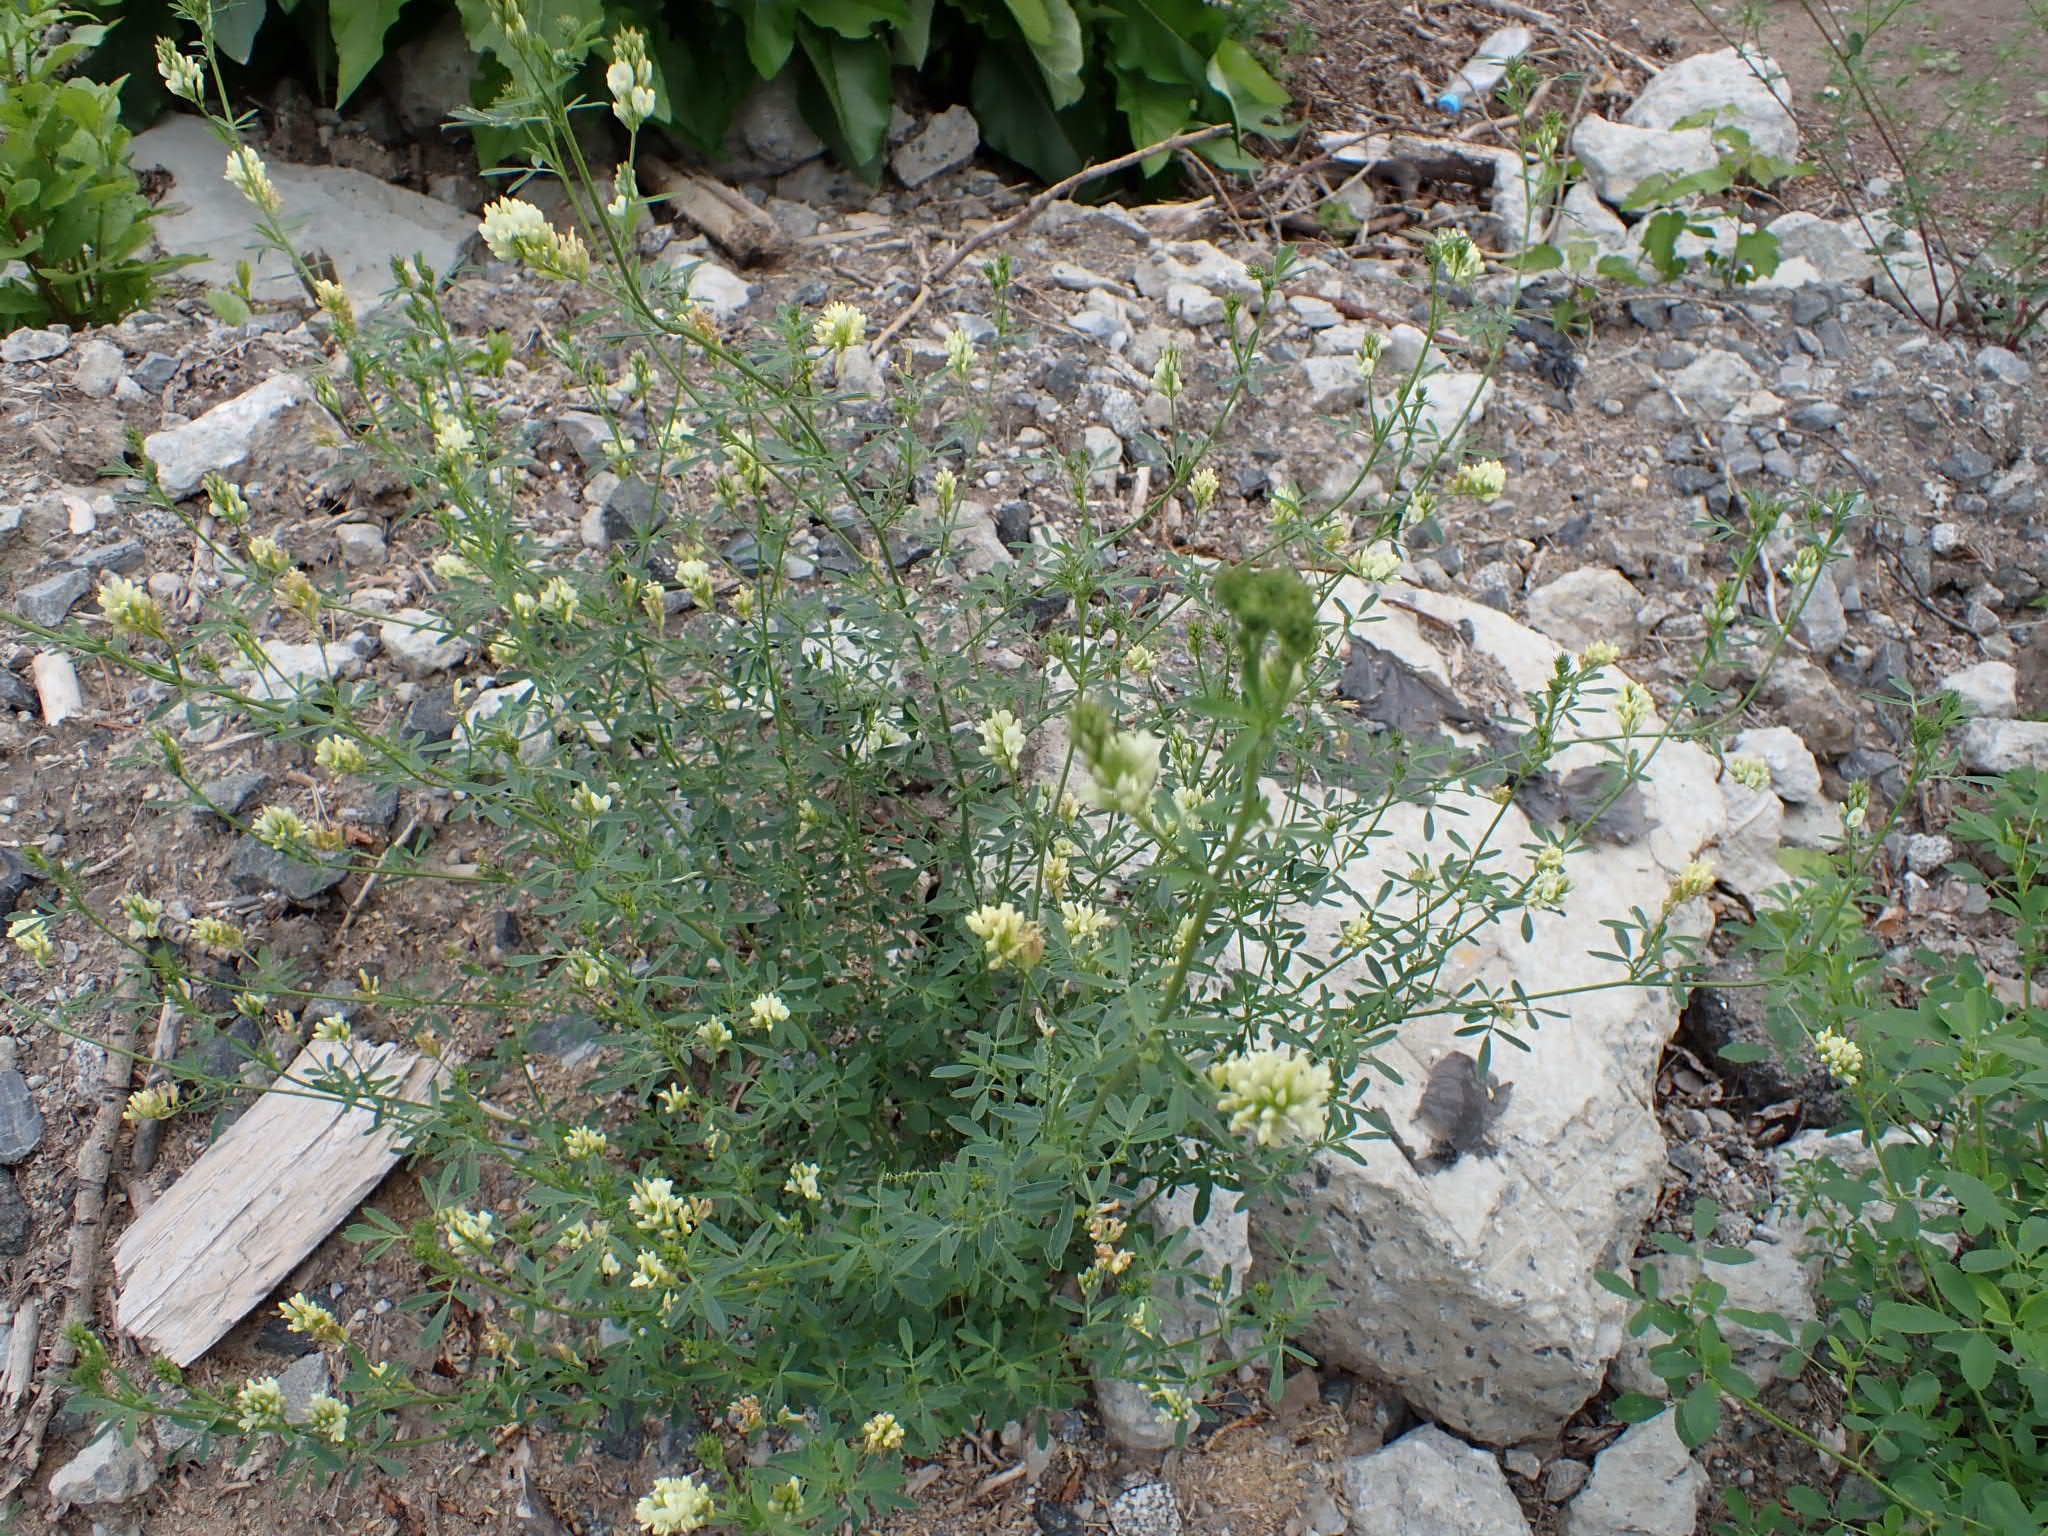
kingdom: Plantae
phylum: Tracheophyta
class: Magnoliopsida
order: Fabales
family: Fabaceae
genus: Medicago
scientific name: Medicago varia
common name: Sand lucerne
